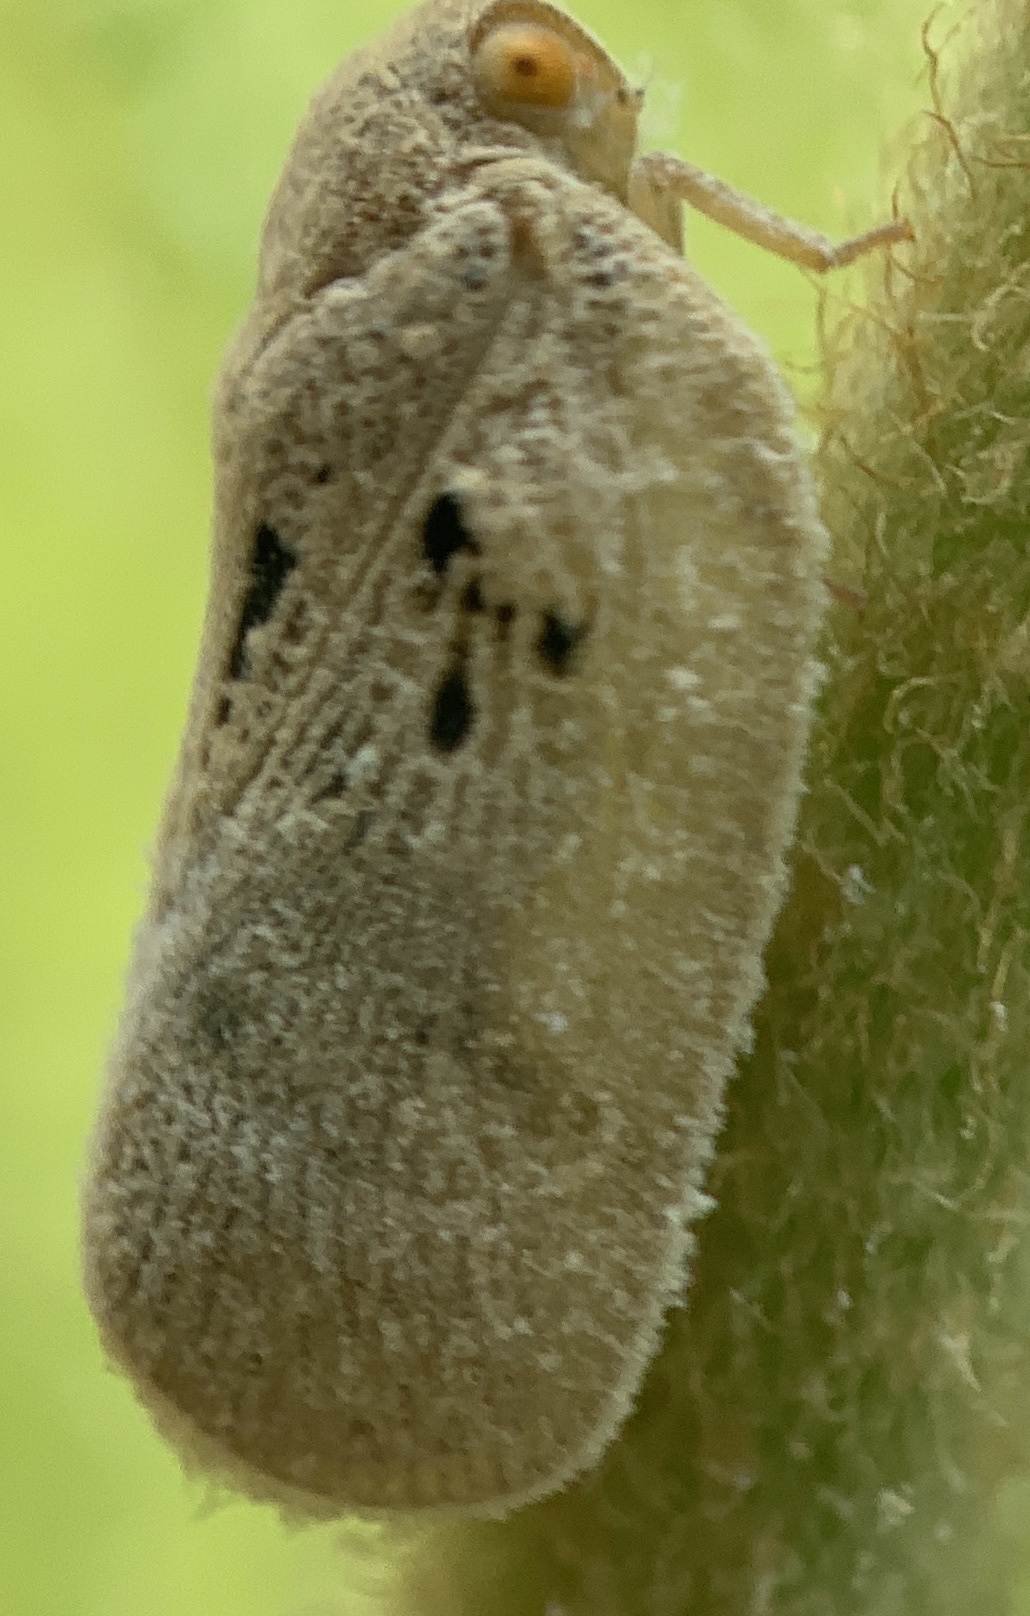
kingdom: Animalia
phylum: Arthropoda
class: Insecta
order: Hemiptera
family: Flatidae
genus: Metcalfa
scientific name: Metcalfa pruinosa
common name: Citrus flatid planthopper
